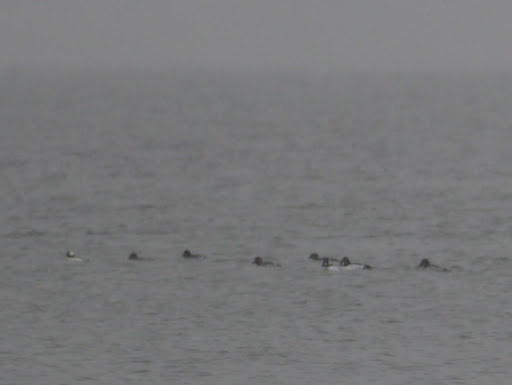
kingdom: Animalia
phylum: Chordata
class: Aves
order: Anseriformes
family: Anatidae
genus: Bucephala
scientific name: Bucephala clangula
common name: Common goldeneye
